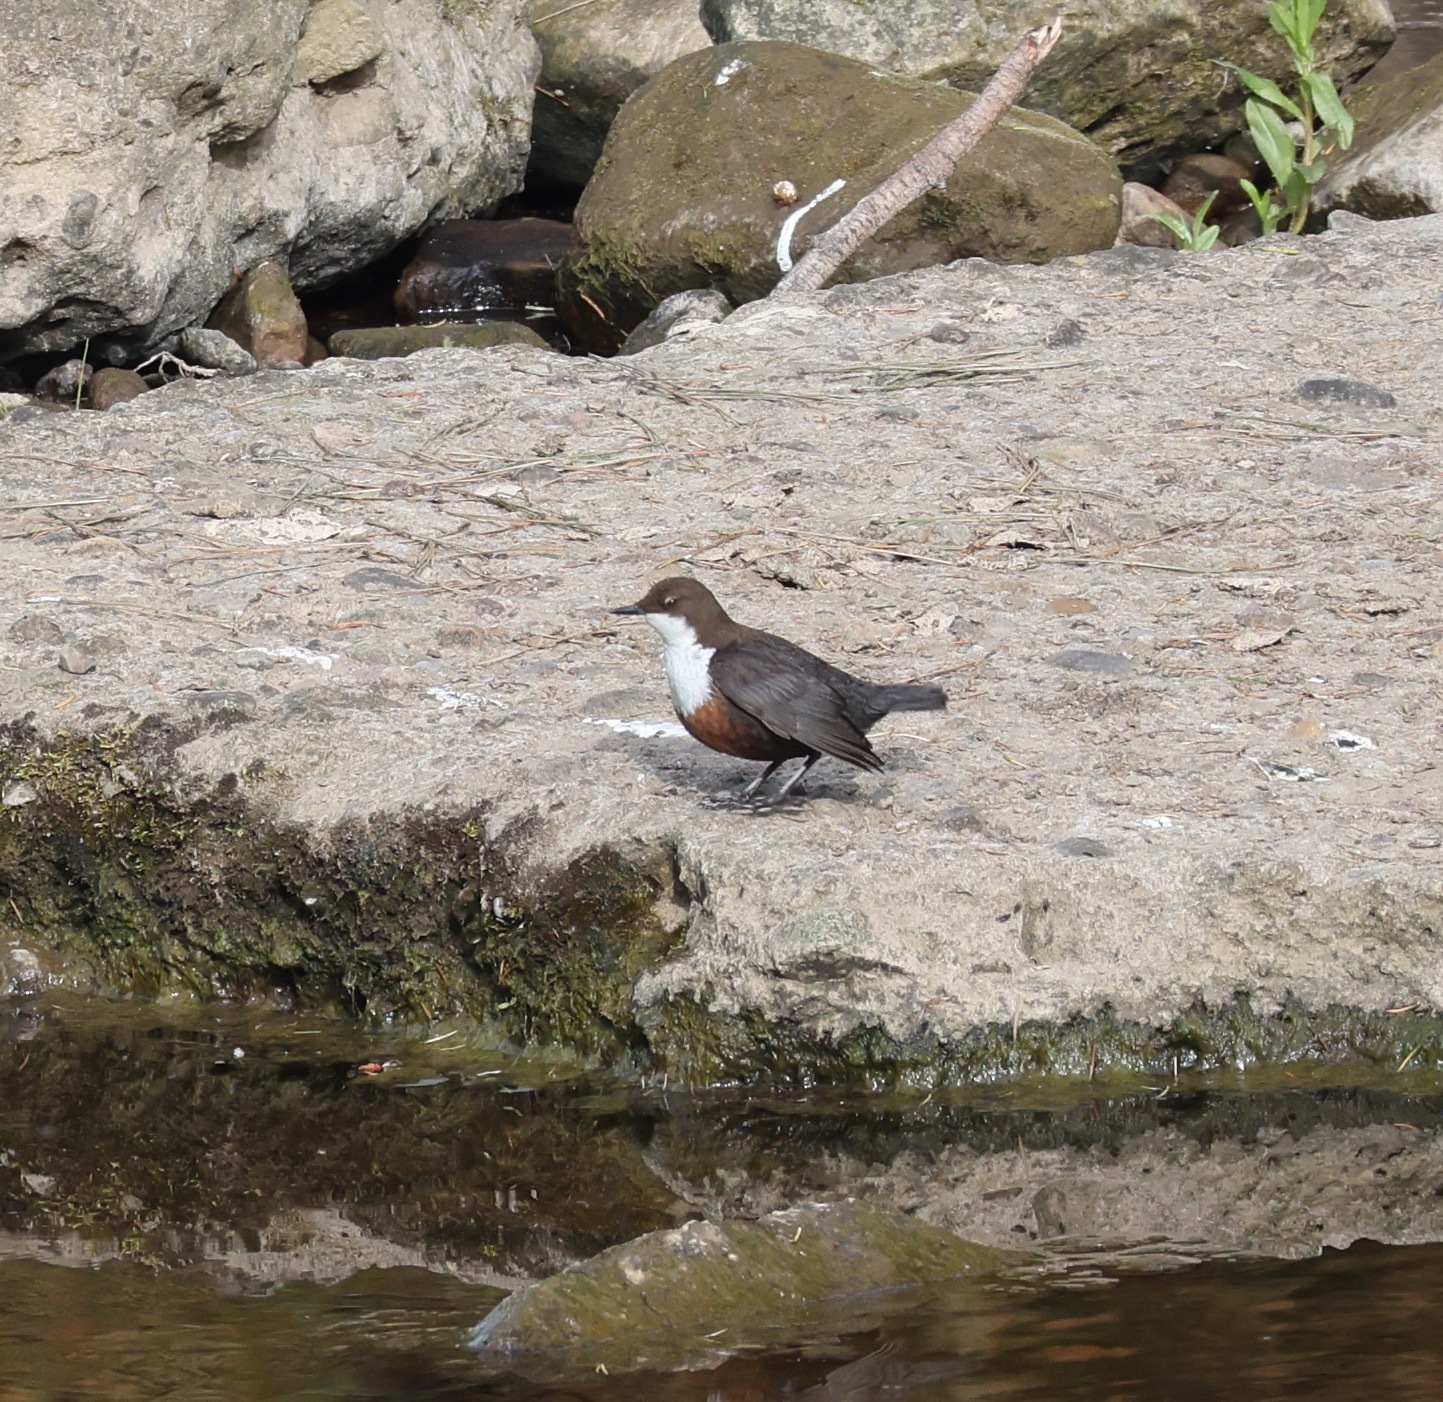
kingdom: Animalia
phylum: Chordata
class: Aves
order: Passeriformes
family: Cinclidae
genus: Cinclus
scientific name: Cinclus cinclus
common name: White-throated dipper
